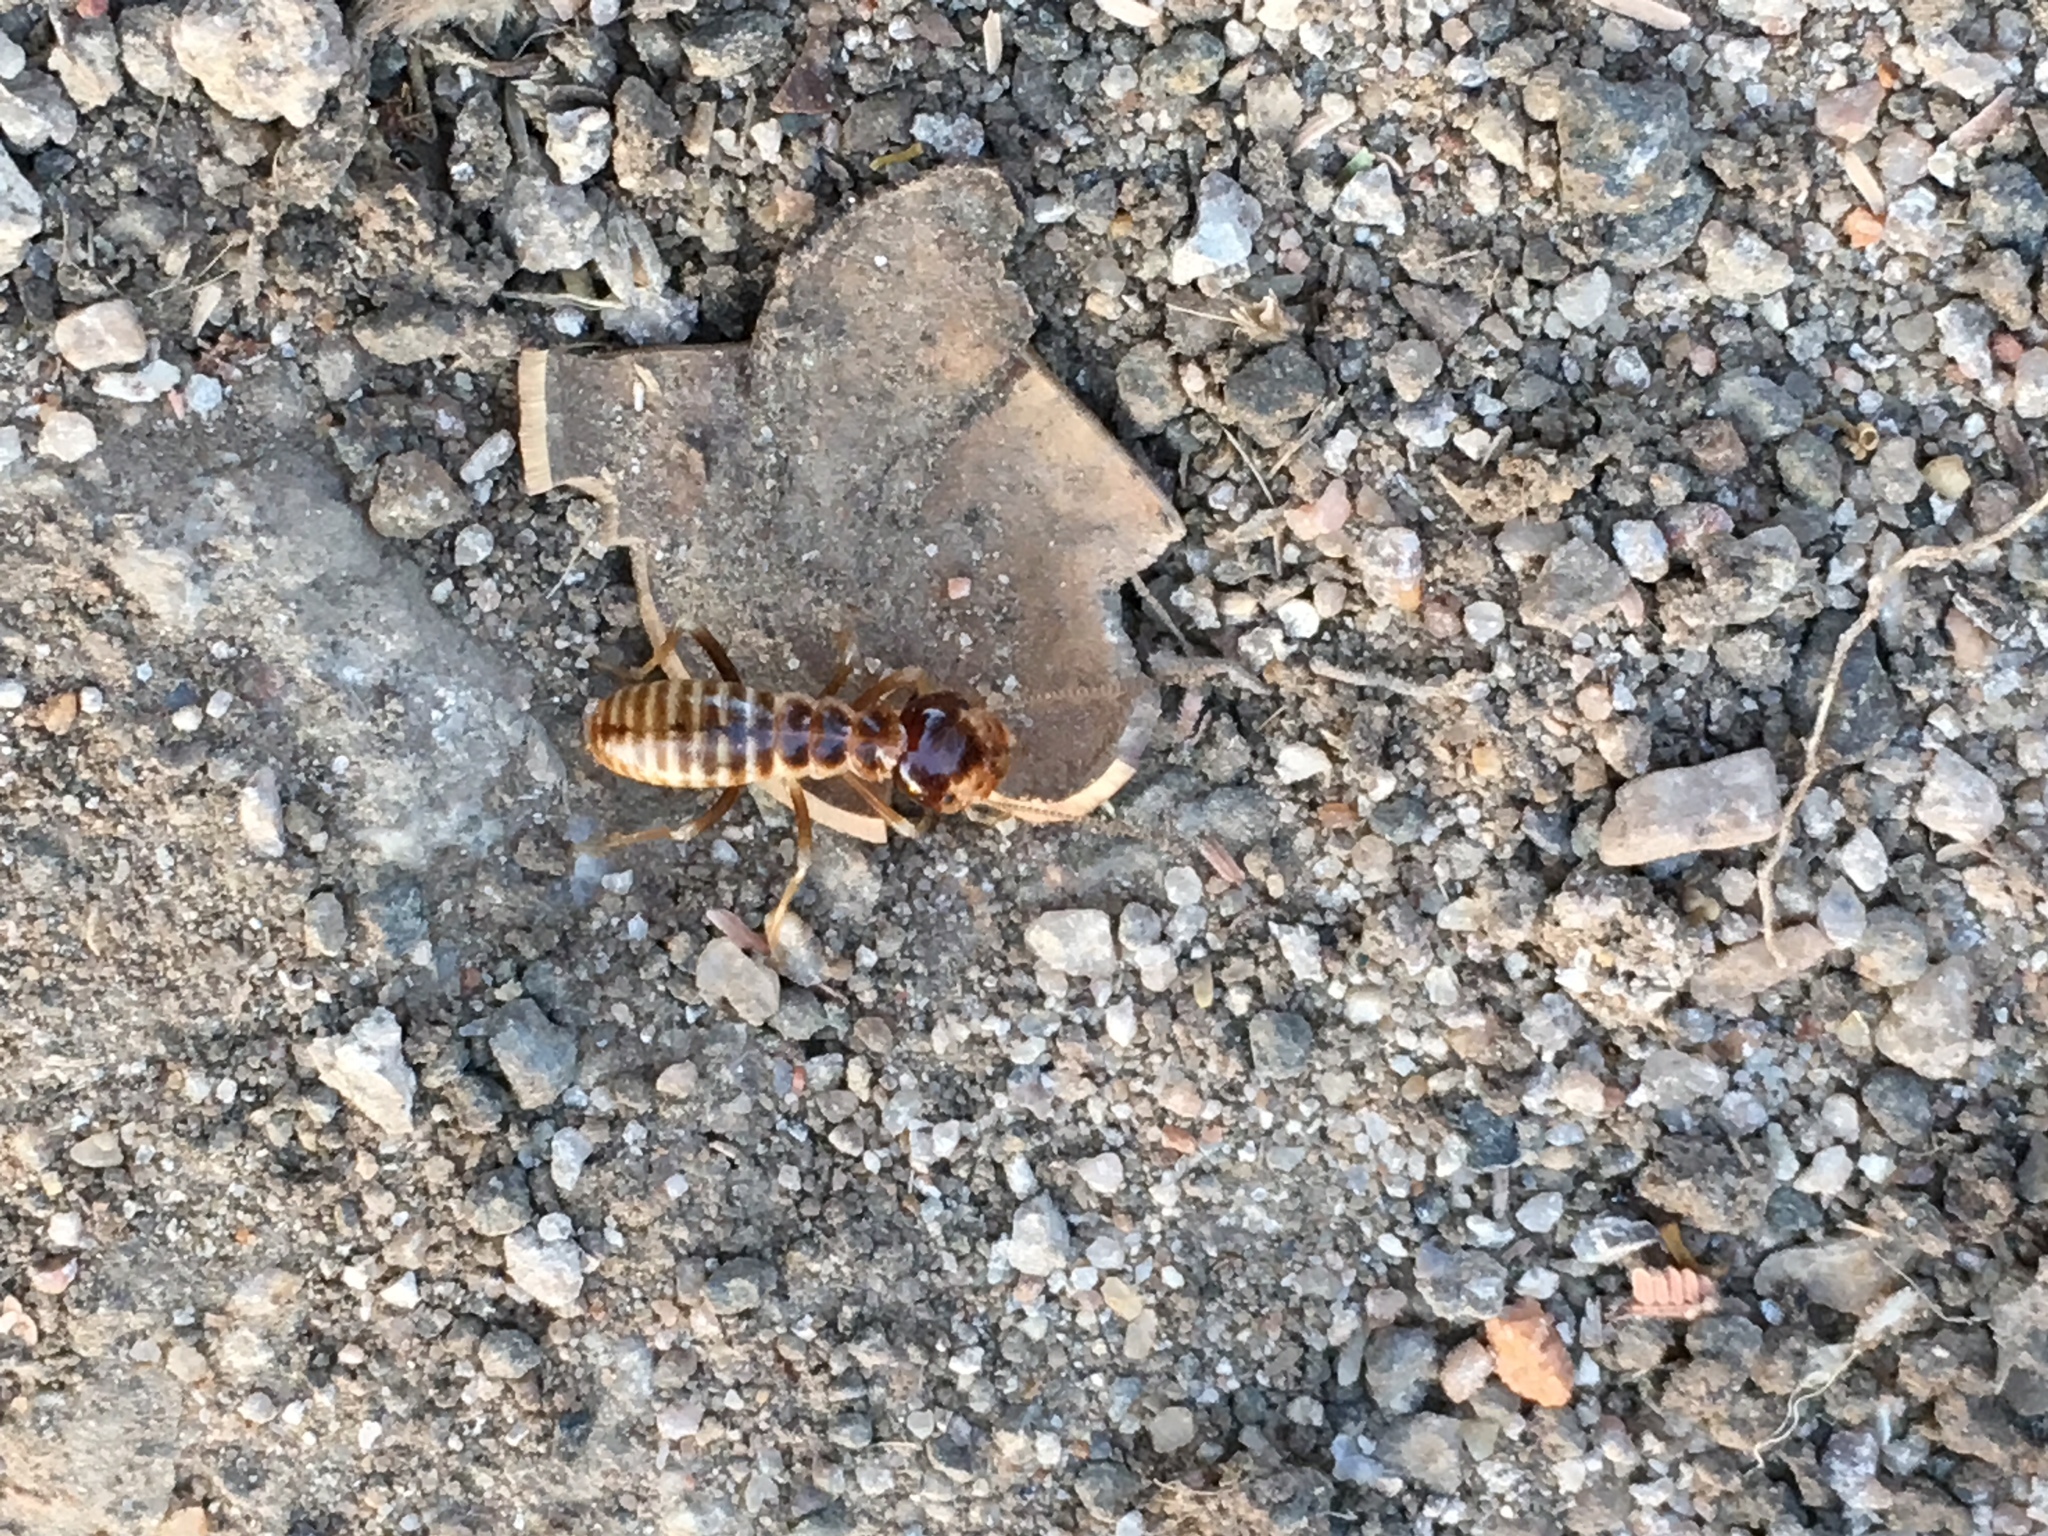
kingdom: Animalia
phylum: Arthropoda
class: Insecta
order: Blattodea
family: Hodotermitidae
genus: Hodotermes
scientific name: Hodotermes mossambicus
